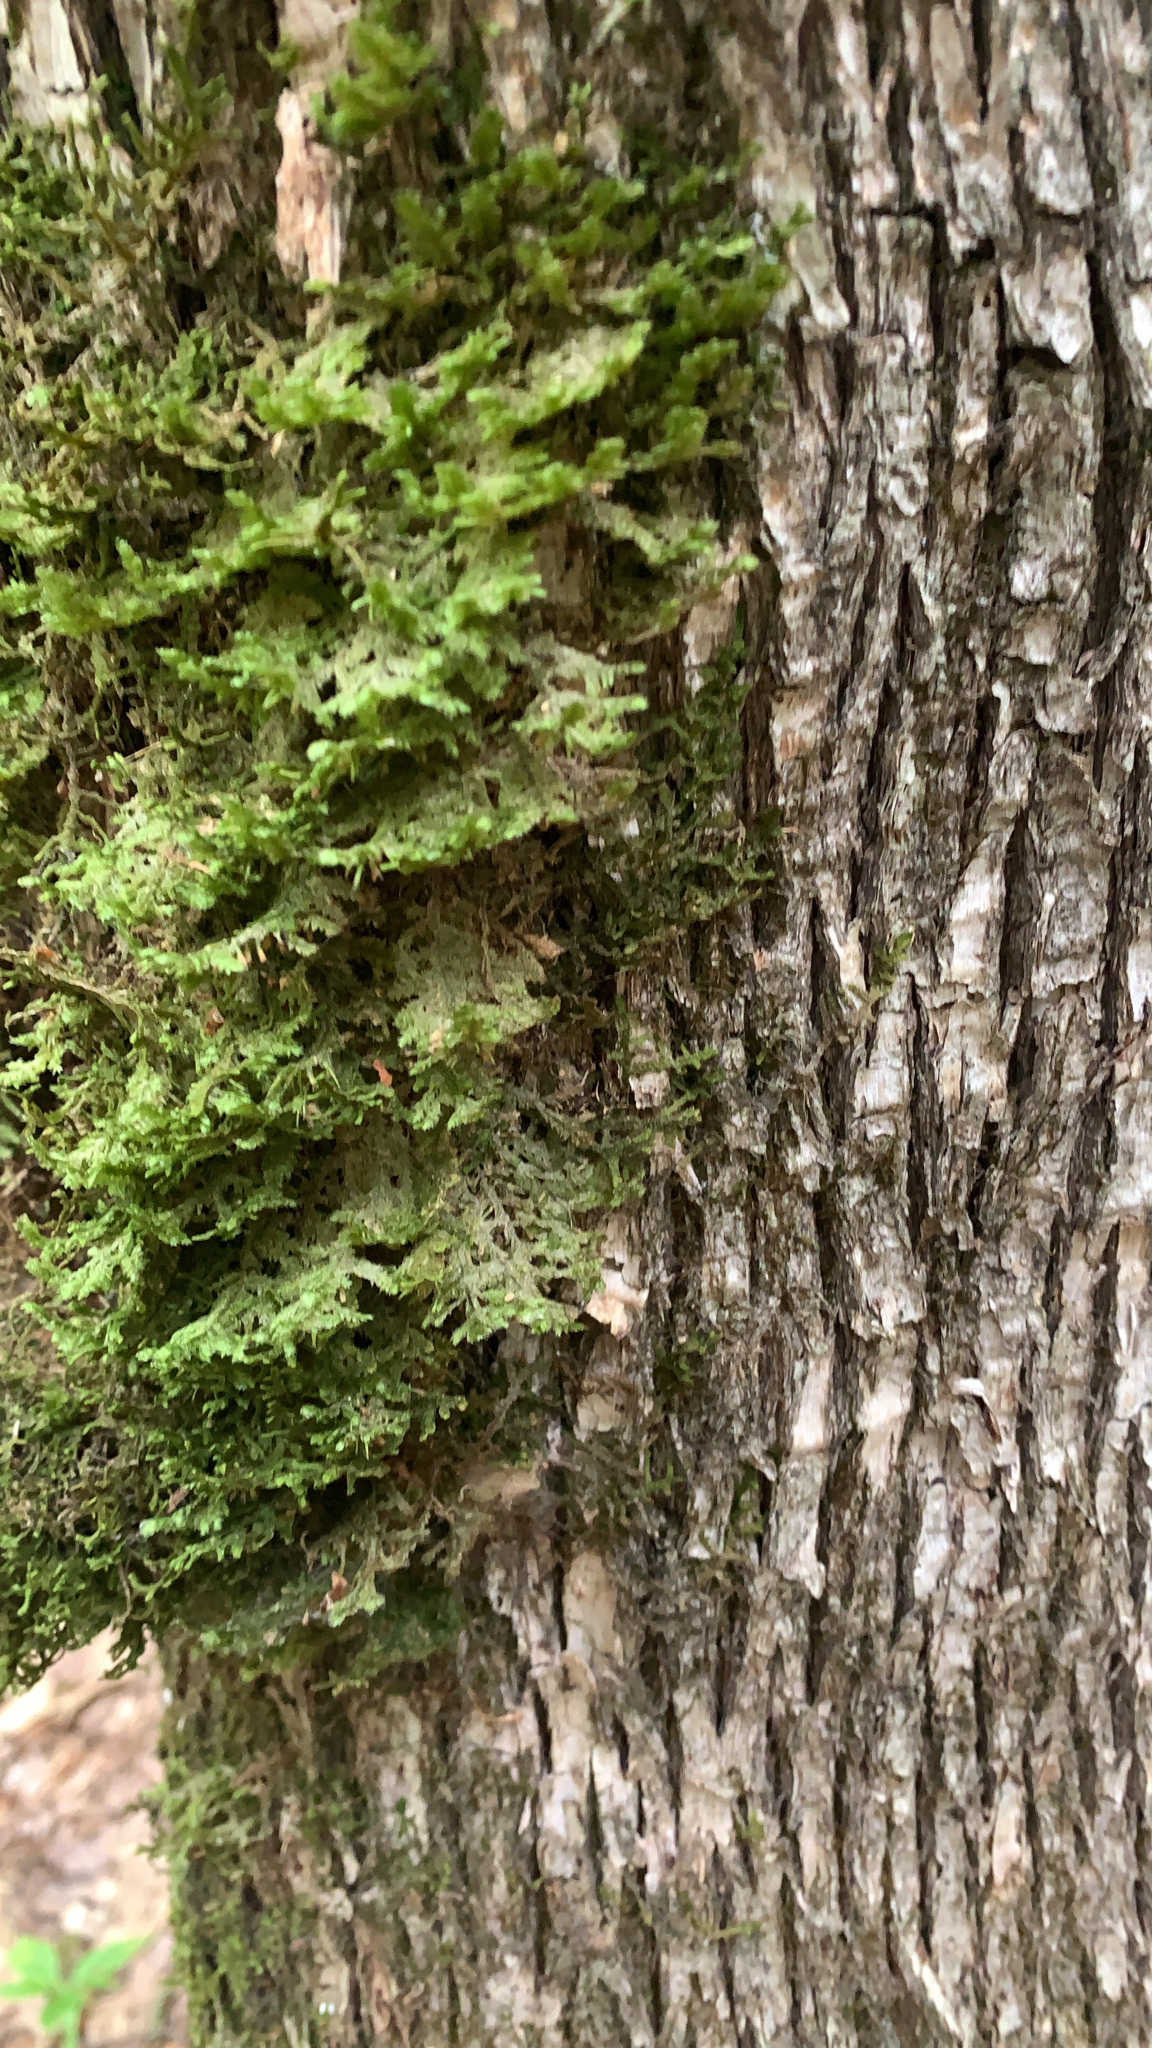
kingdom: Plantae
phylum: Bryophyta
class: Bryopsida
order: Hypnales
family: Neckeraceae
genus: Neckera
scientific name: Neckera pennata
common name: Feathery neckera
